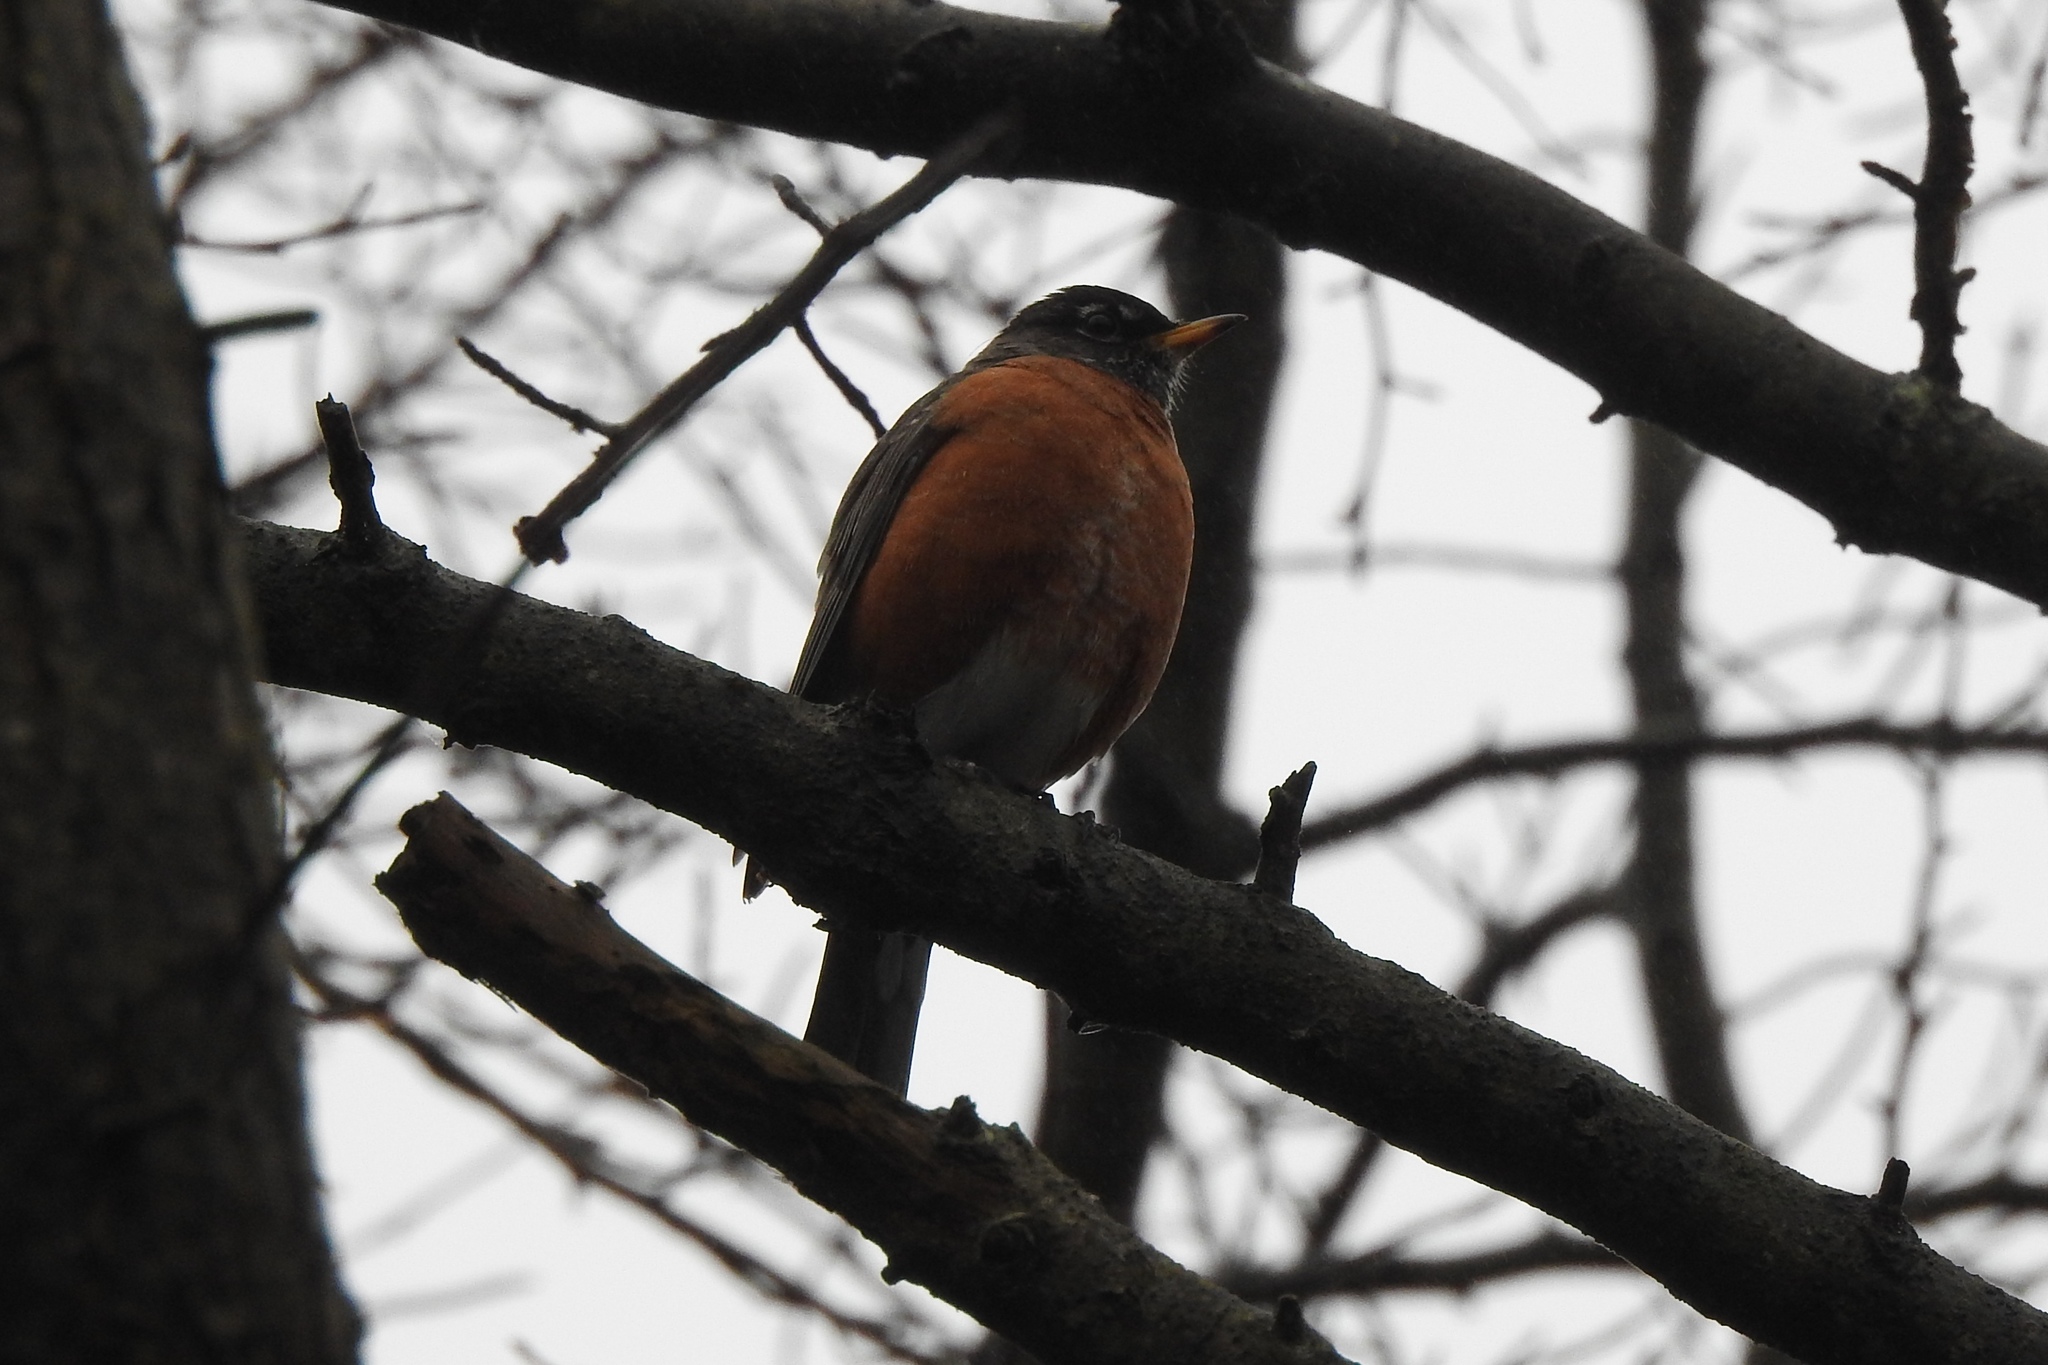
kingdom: Animalia
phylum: Chordata
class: Aves
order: Passeriformes
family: Turdidae
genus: Turdus
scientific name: Turdus migratorius
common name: American robin
